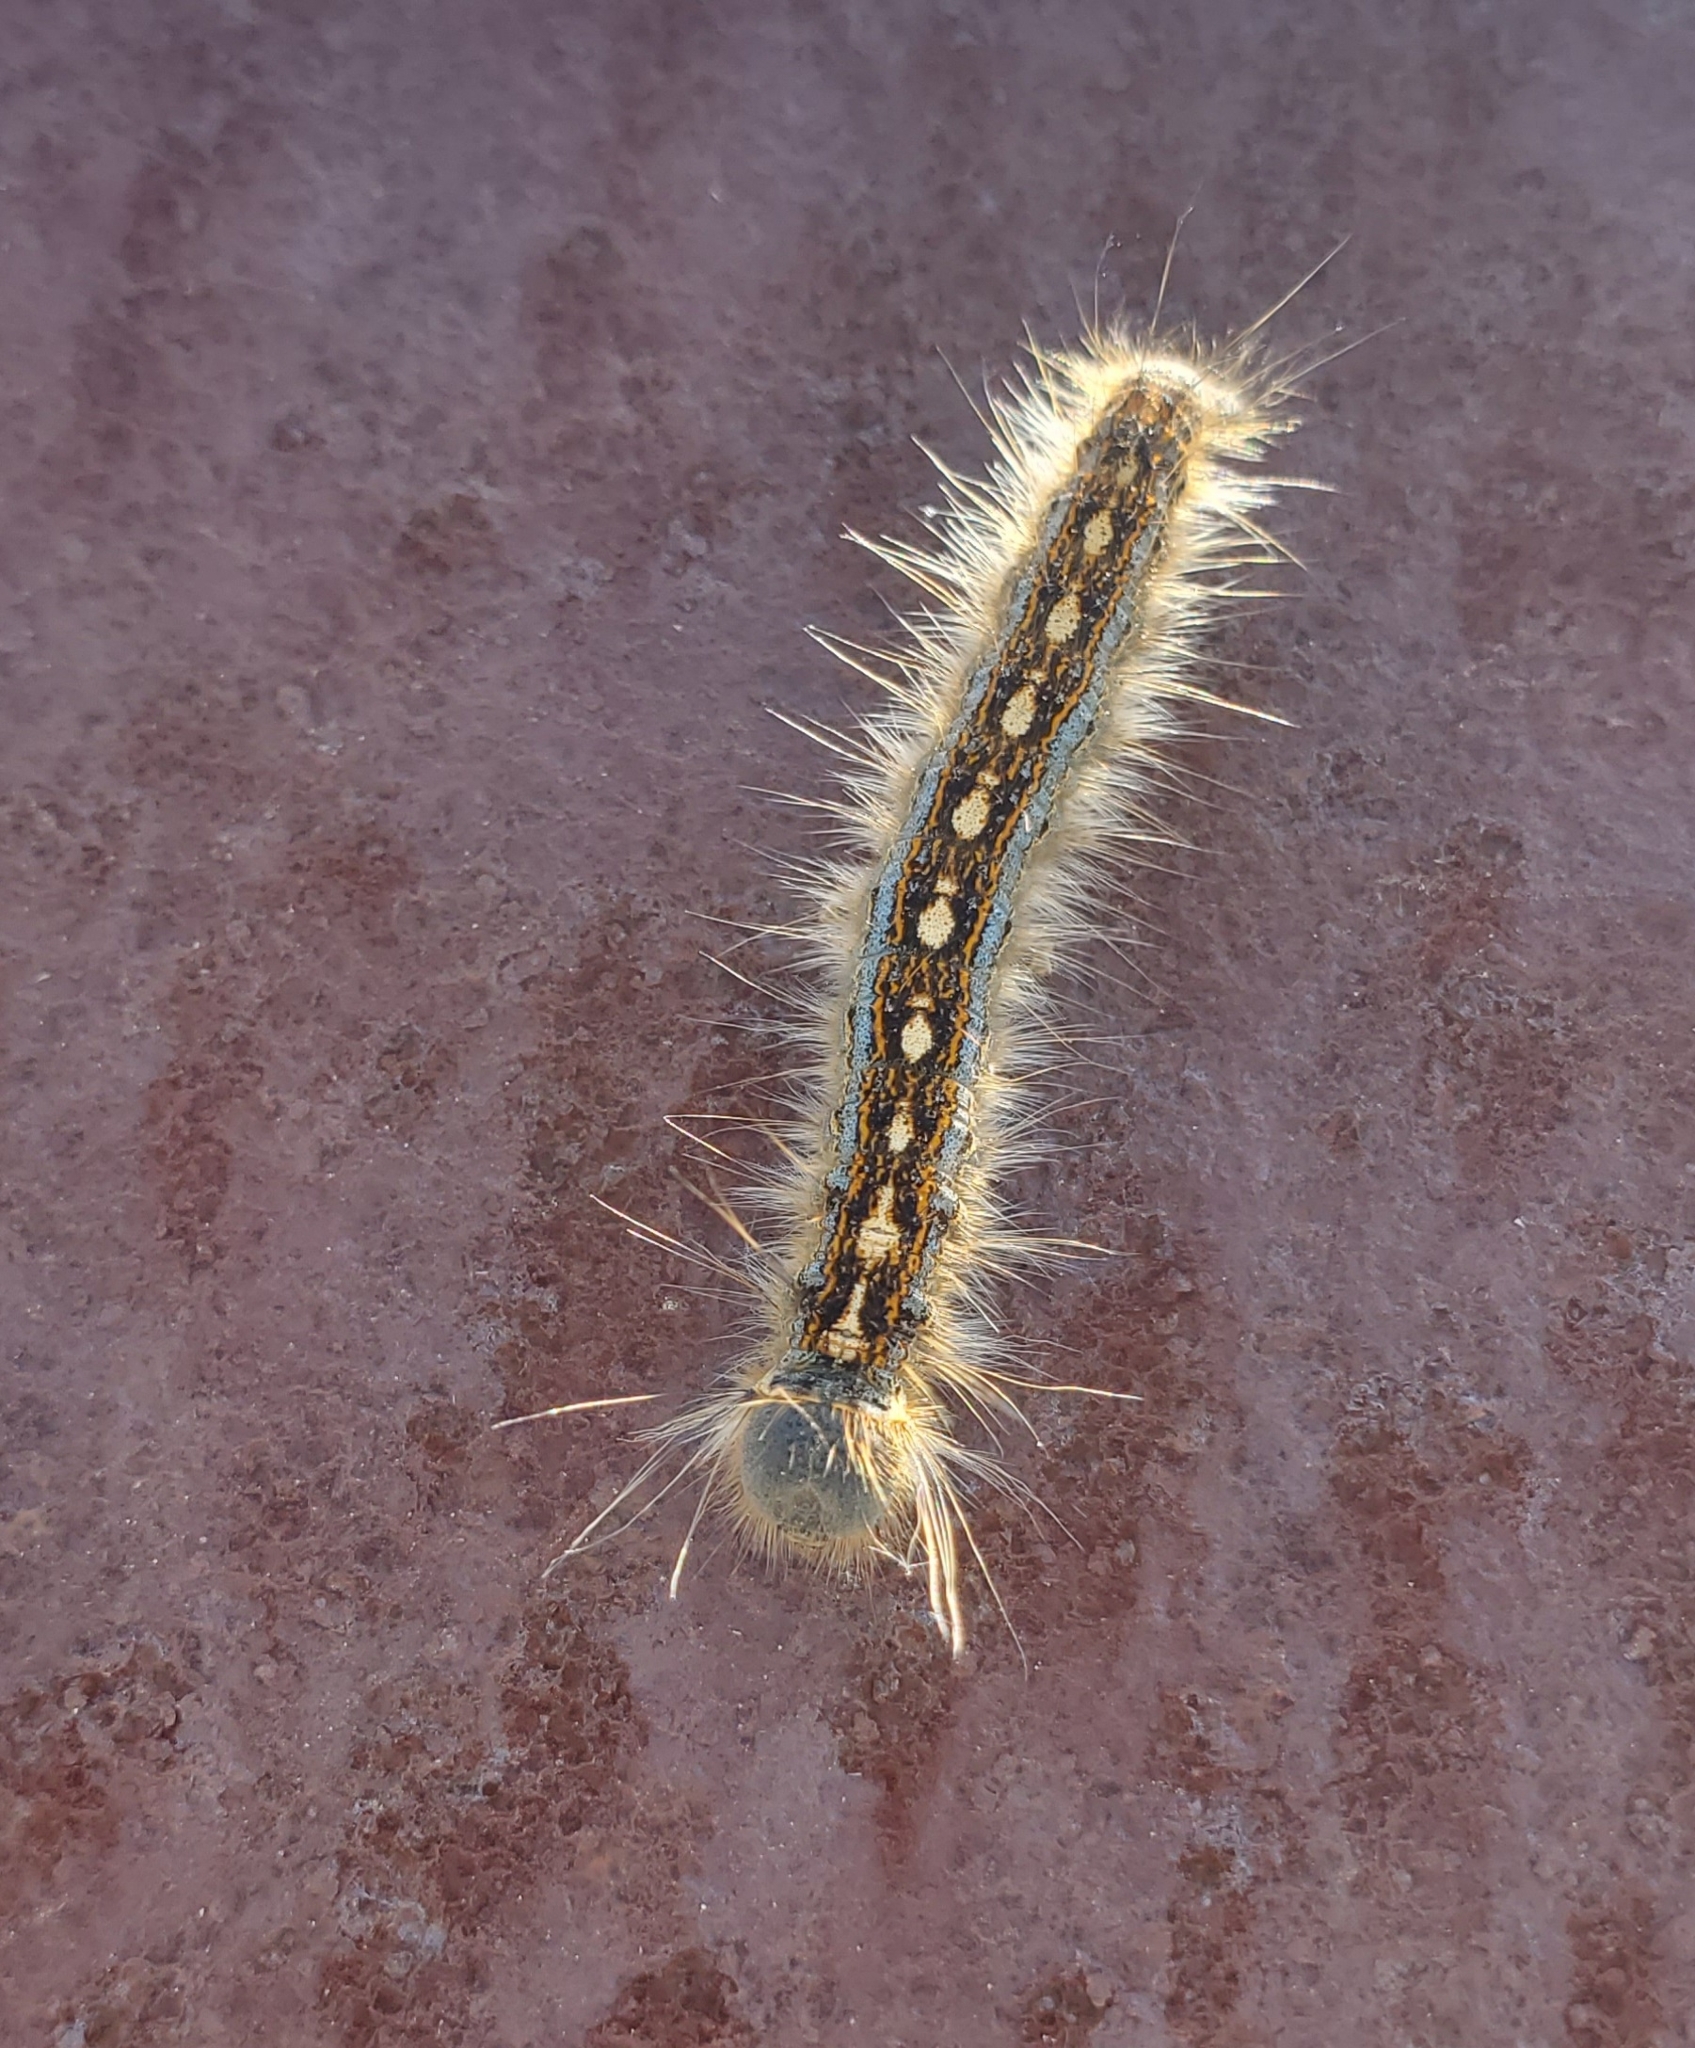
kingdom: Animalia
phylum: Arthropoda
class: Insecta
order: Lepidoptera
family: Lasiocampidae
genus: Malacosoma
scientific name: Malacosoma disstria
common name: Forest tent caterpillar
